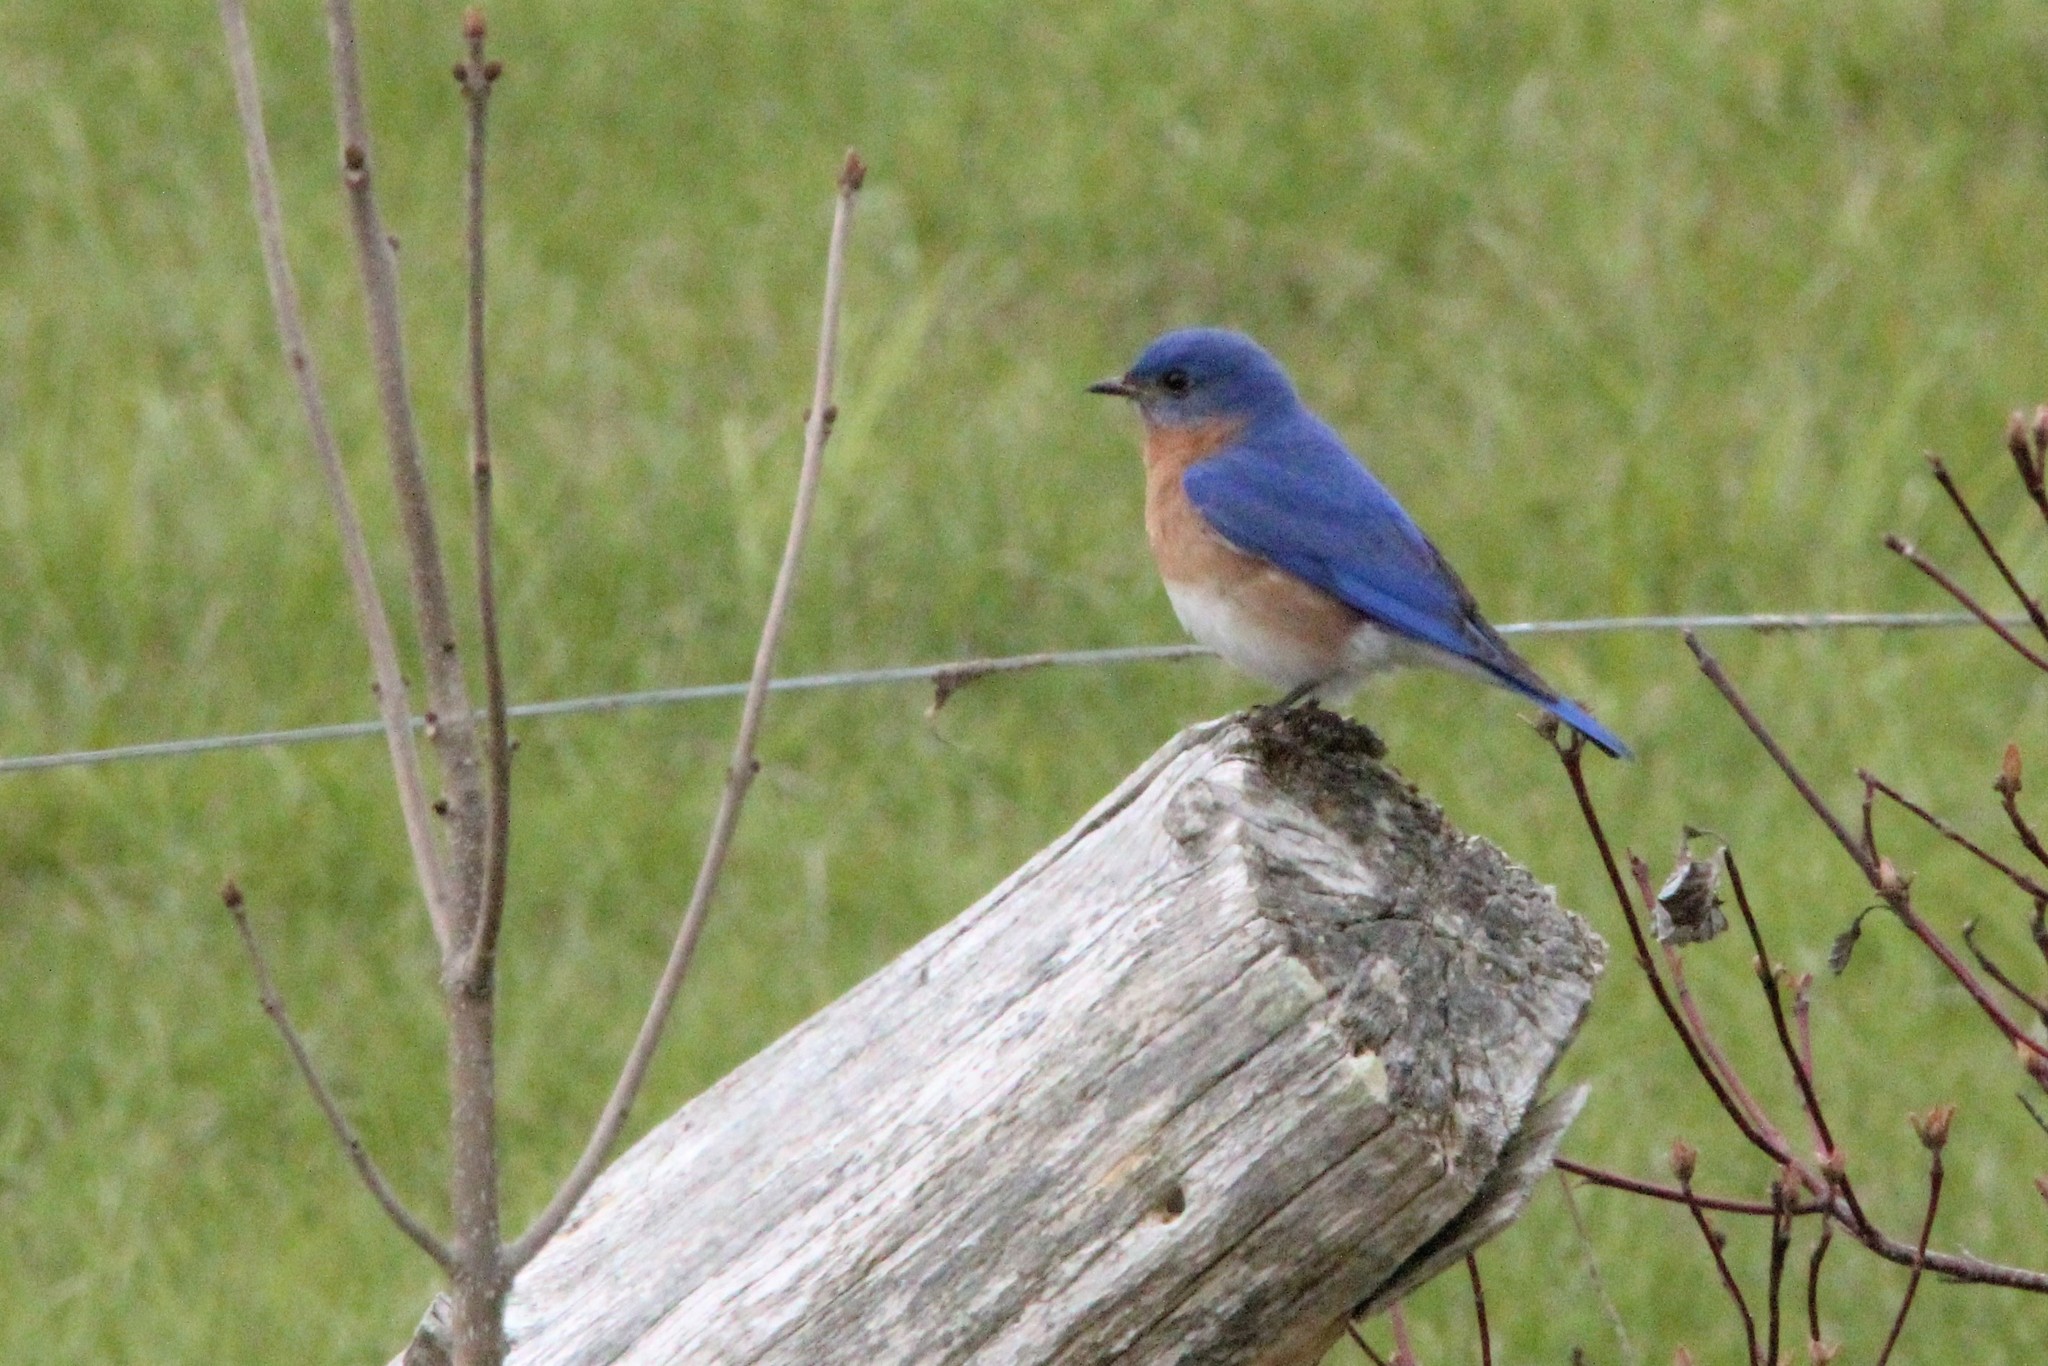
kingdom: Animalia
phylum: Chordata
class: Aves
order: Passeriformes
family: Turdidae
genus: Sialia
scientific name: Sialia sialis
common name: Eastern bluebird
